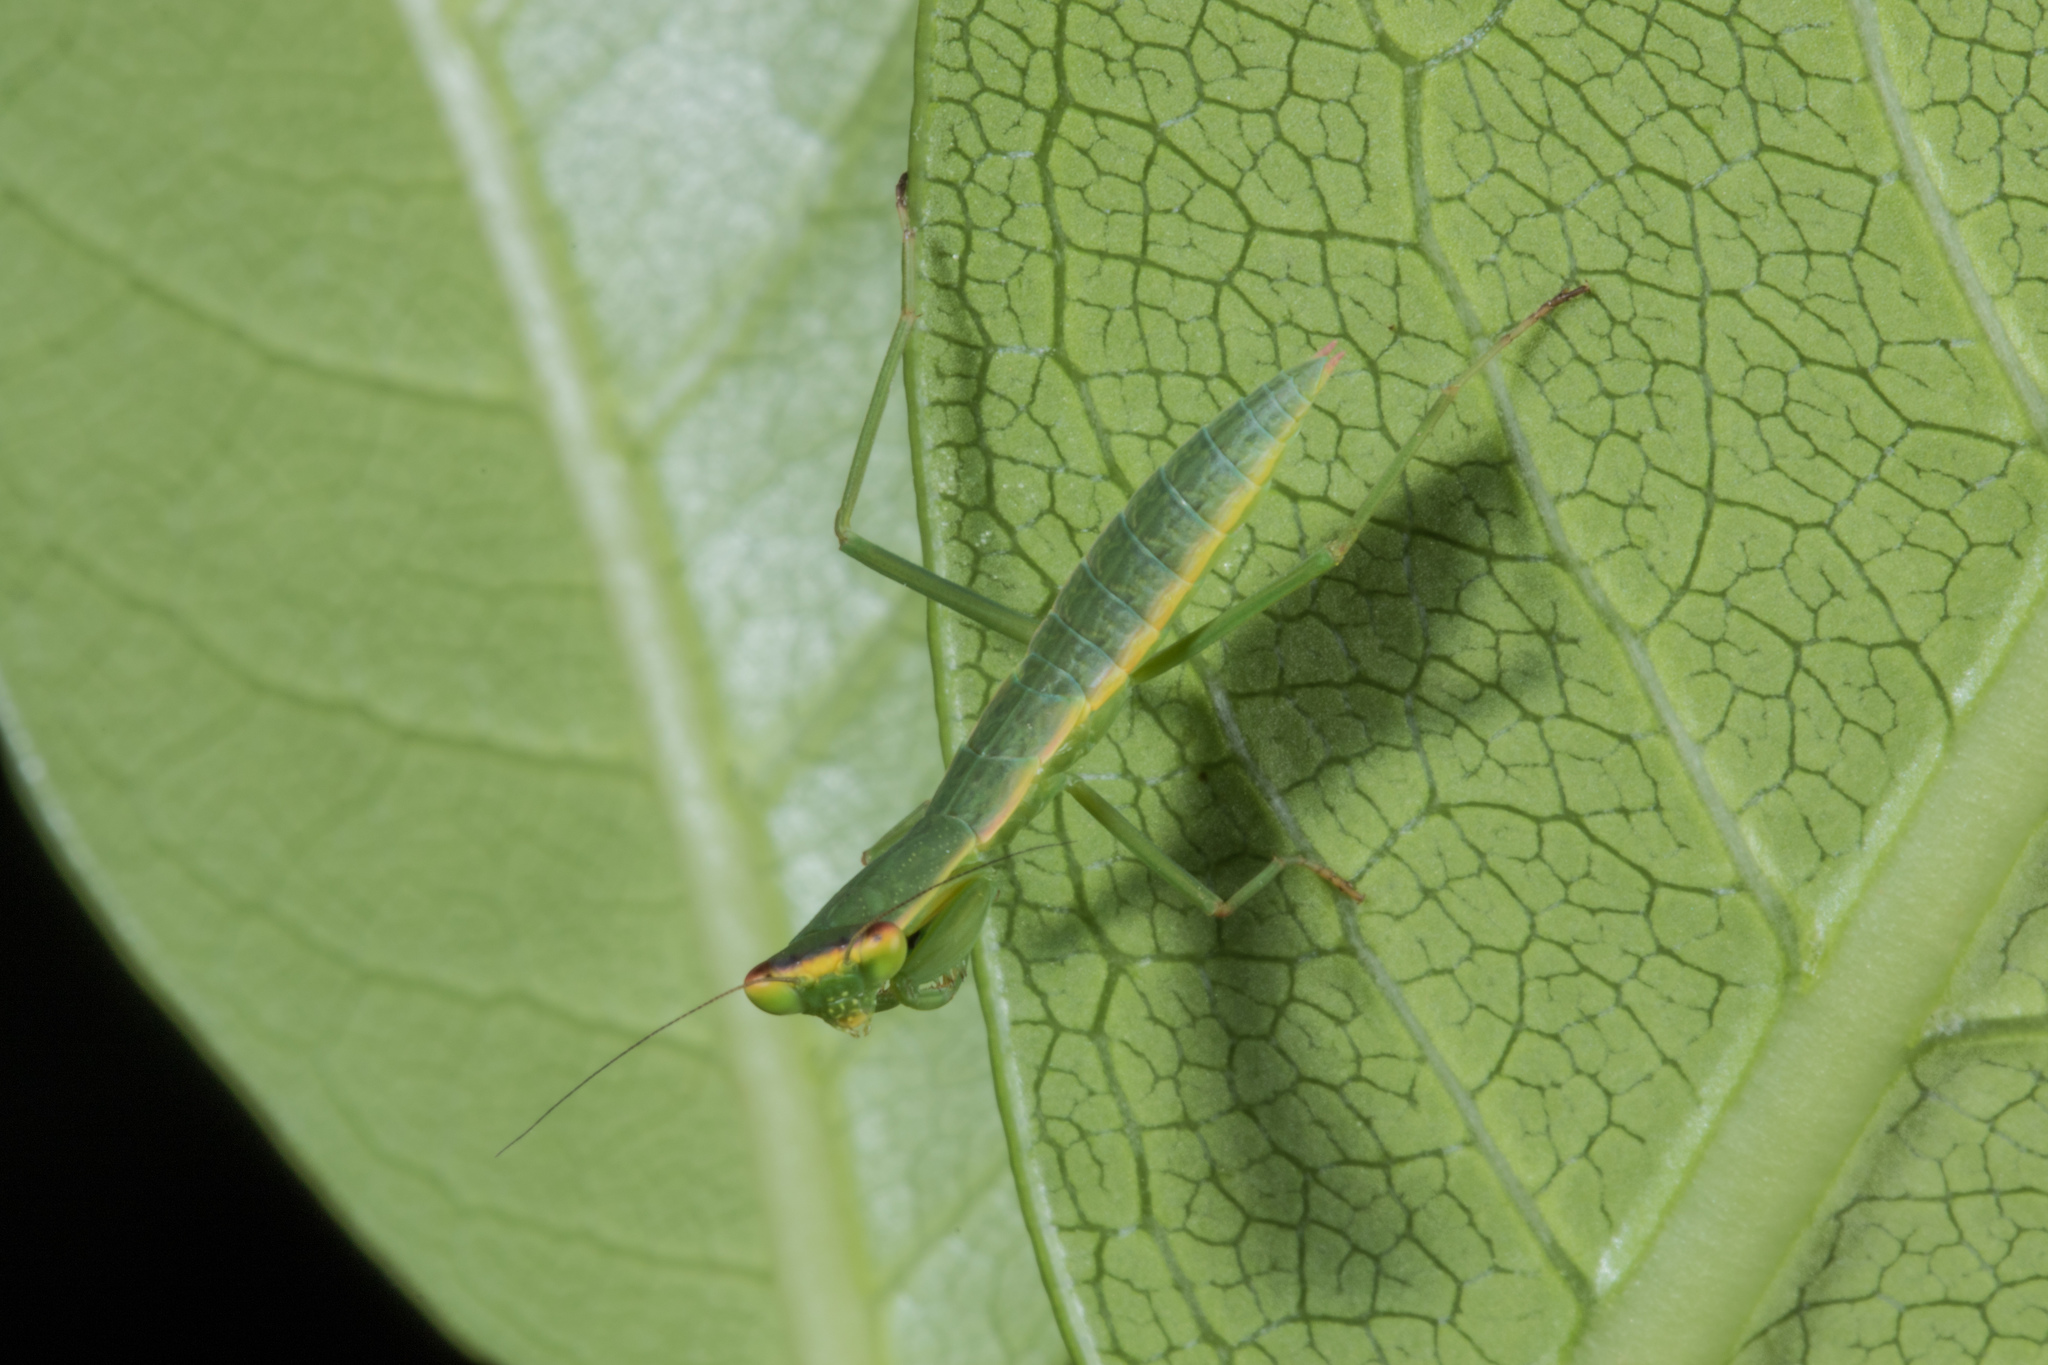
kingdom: Animalia
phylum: Arthropoda
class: Insecta
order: Mantodea
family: Mantidae
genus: Orthodera
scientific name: Orthodera novaezealandiae
